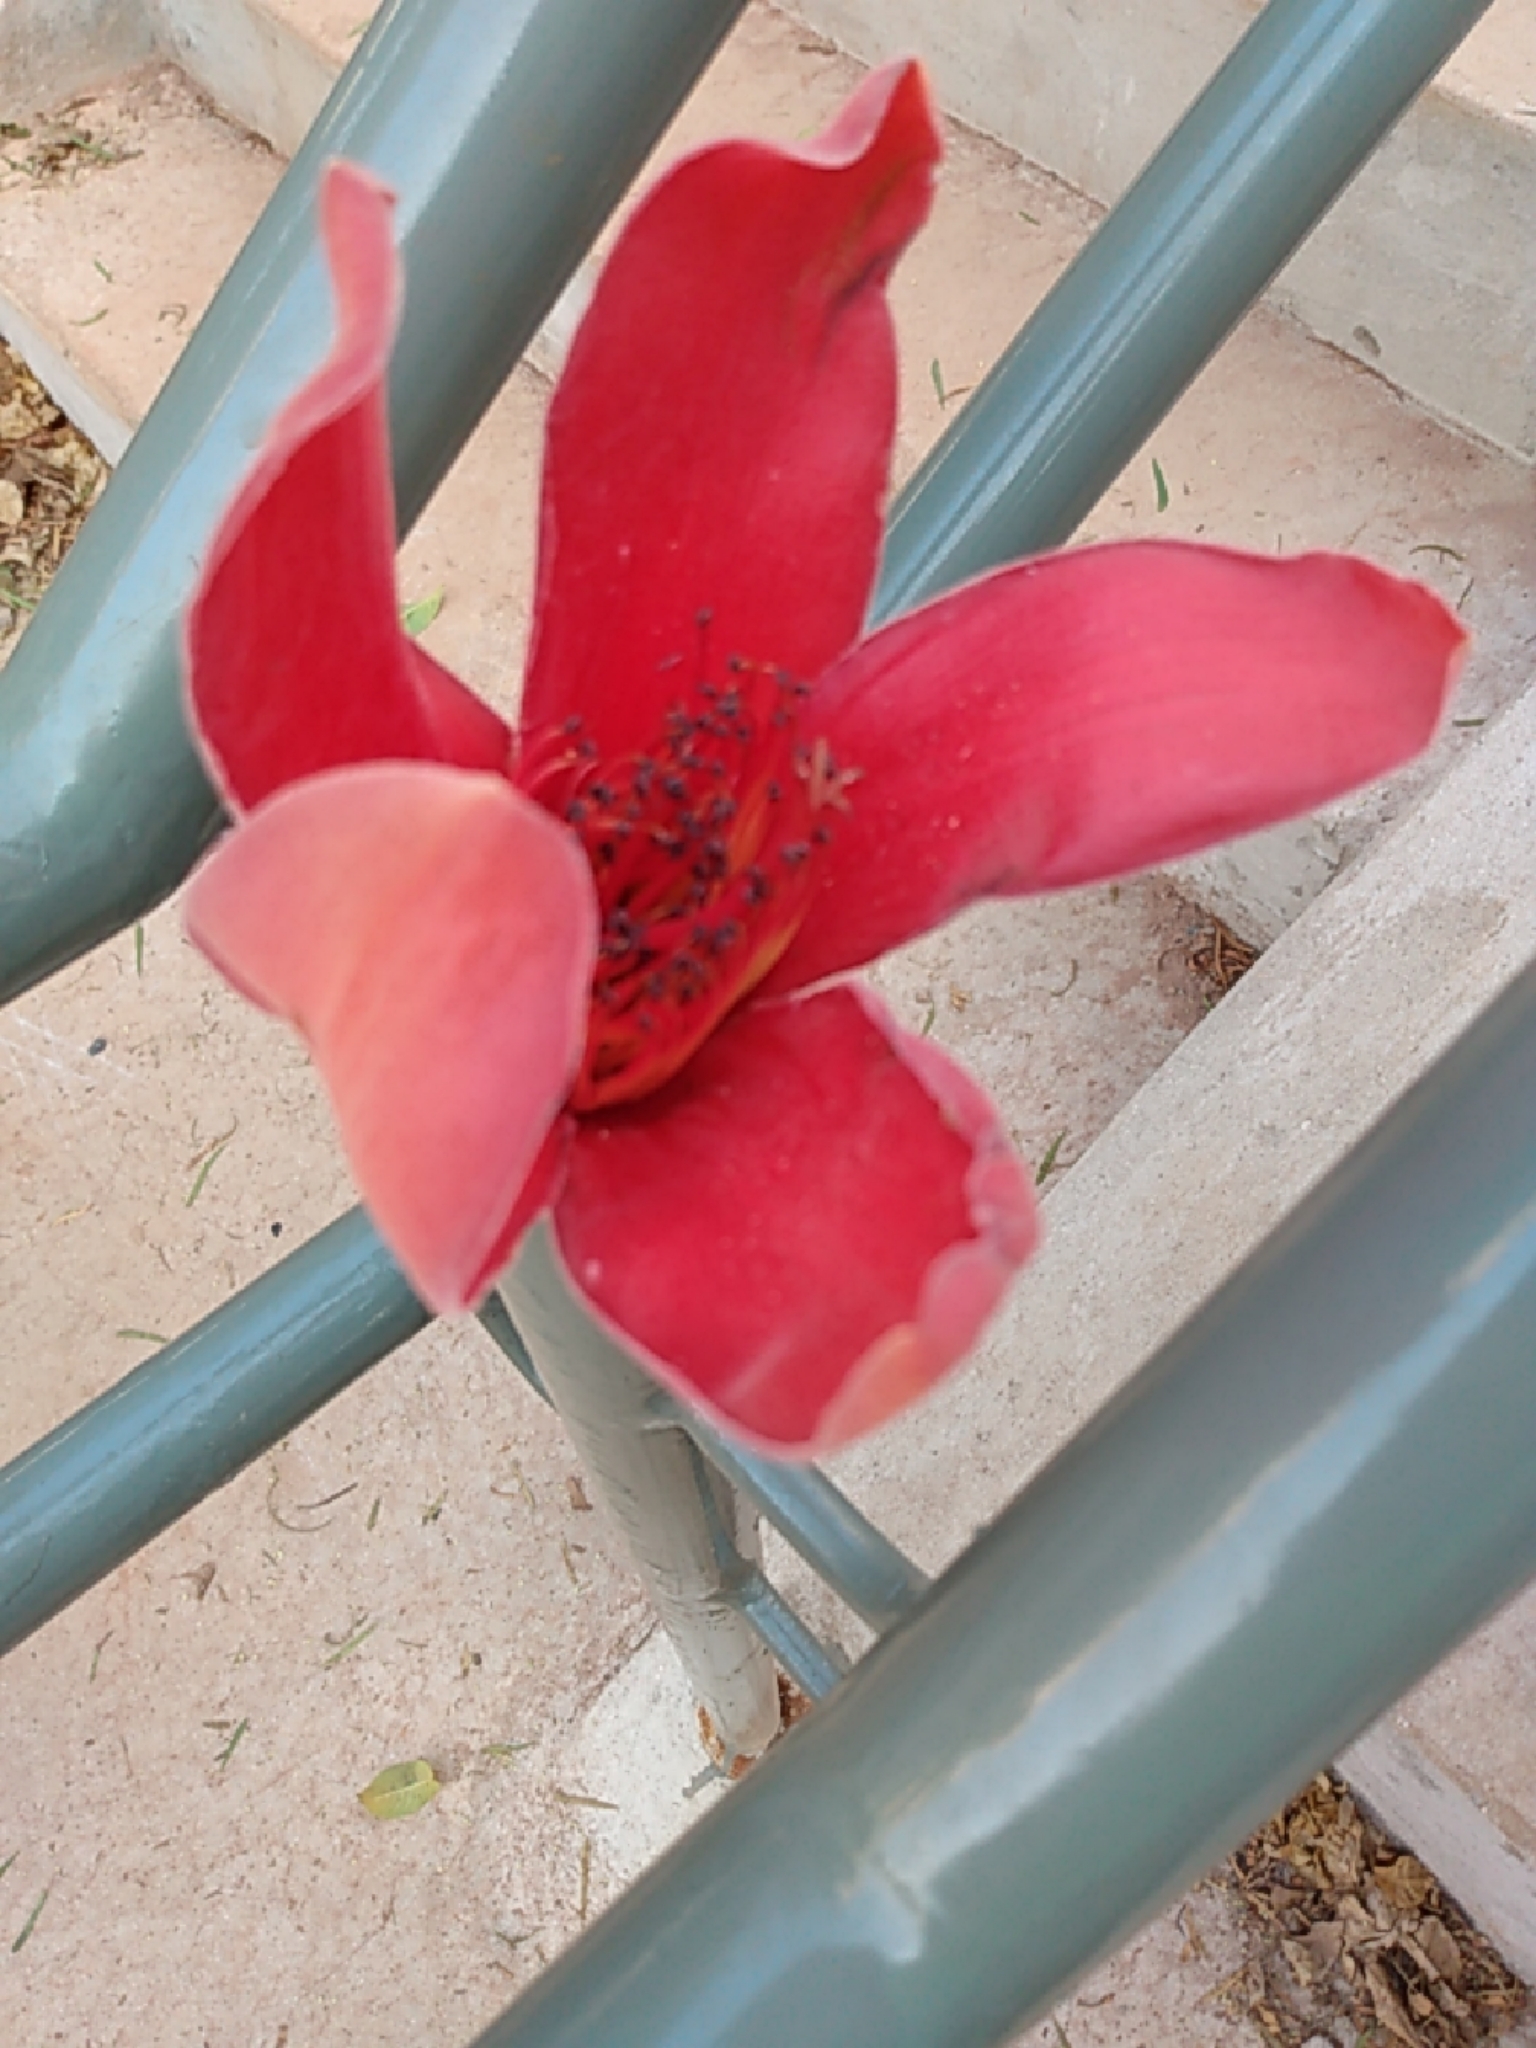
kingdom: Plantae
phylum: Tracheophyta
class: Magnoliopsida
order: Malvales
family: Malvaceae
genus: Bombax
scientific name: Bombax ceiba
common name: Northern-cottonwood
